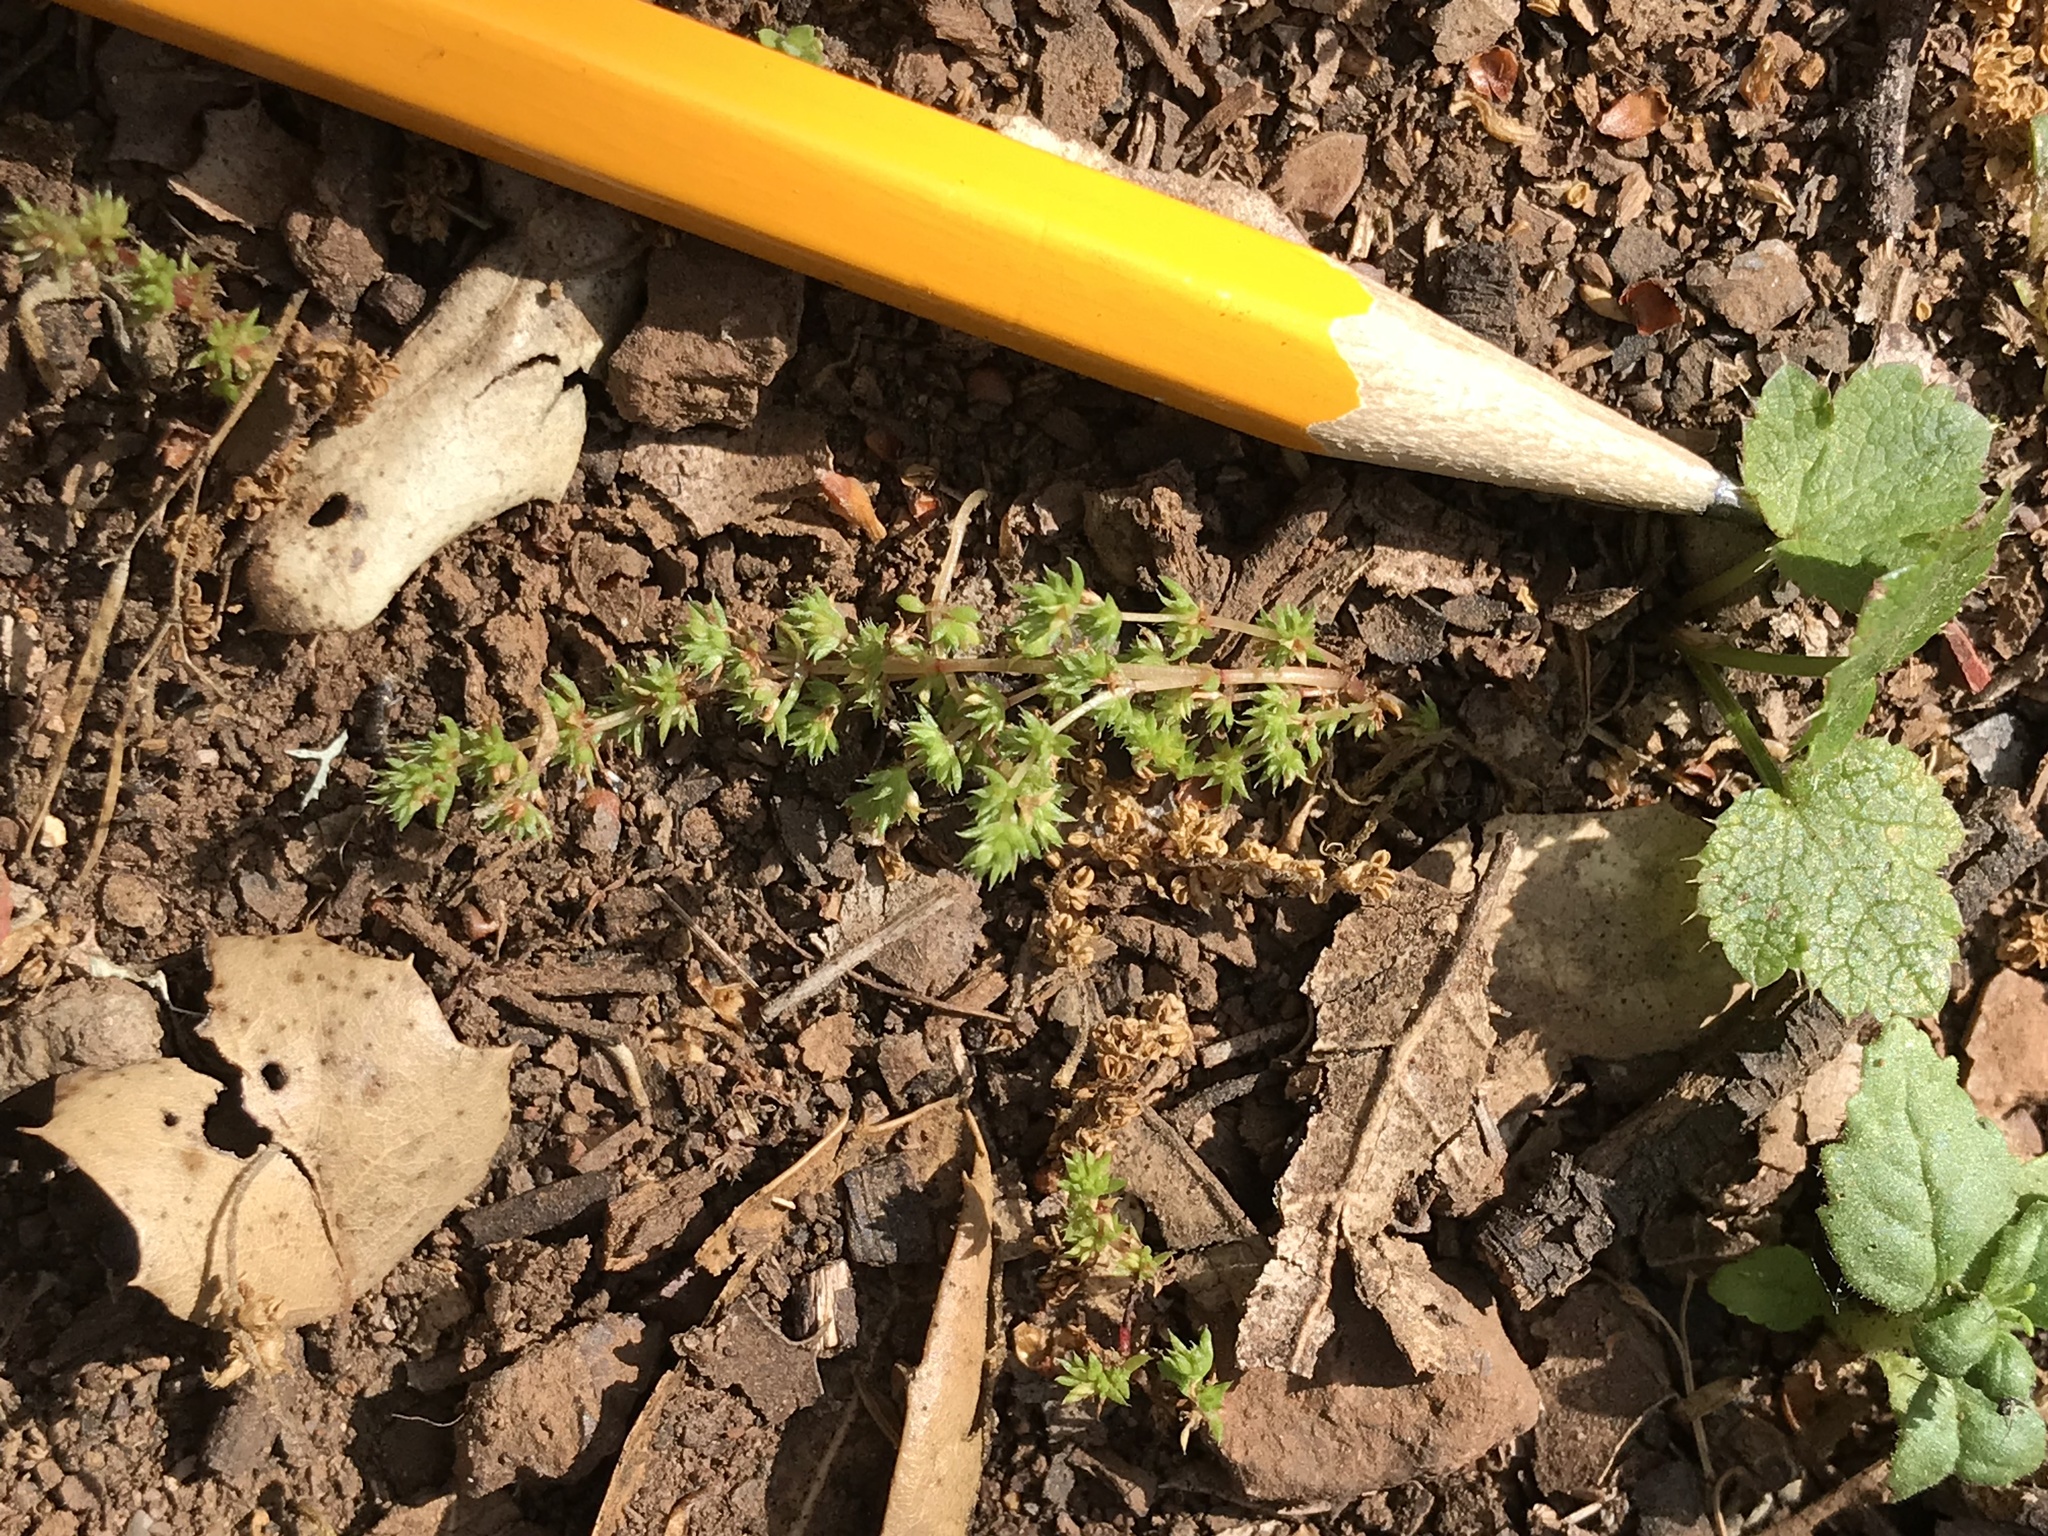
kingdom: Plantae
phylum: Tracheophyta
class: Magnoliopsida
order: Saxifragales
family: Crassulaceae
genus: Crassula
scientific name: Crassula tillaea
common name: Mossy stonecrop
